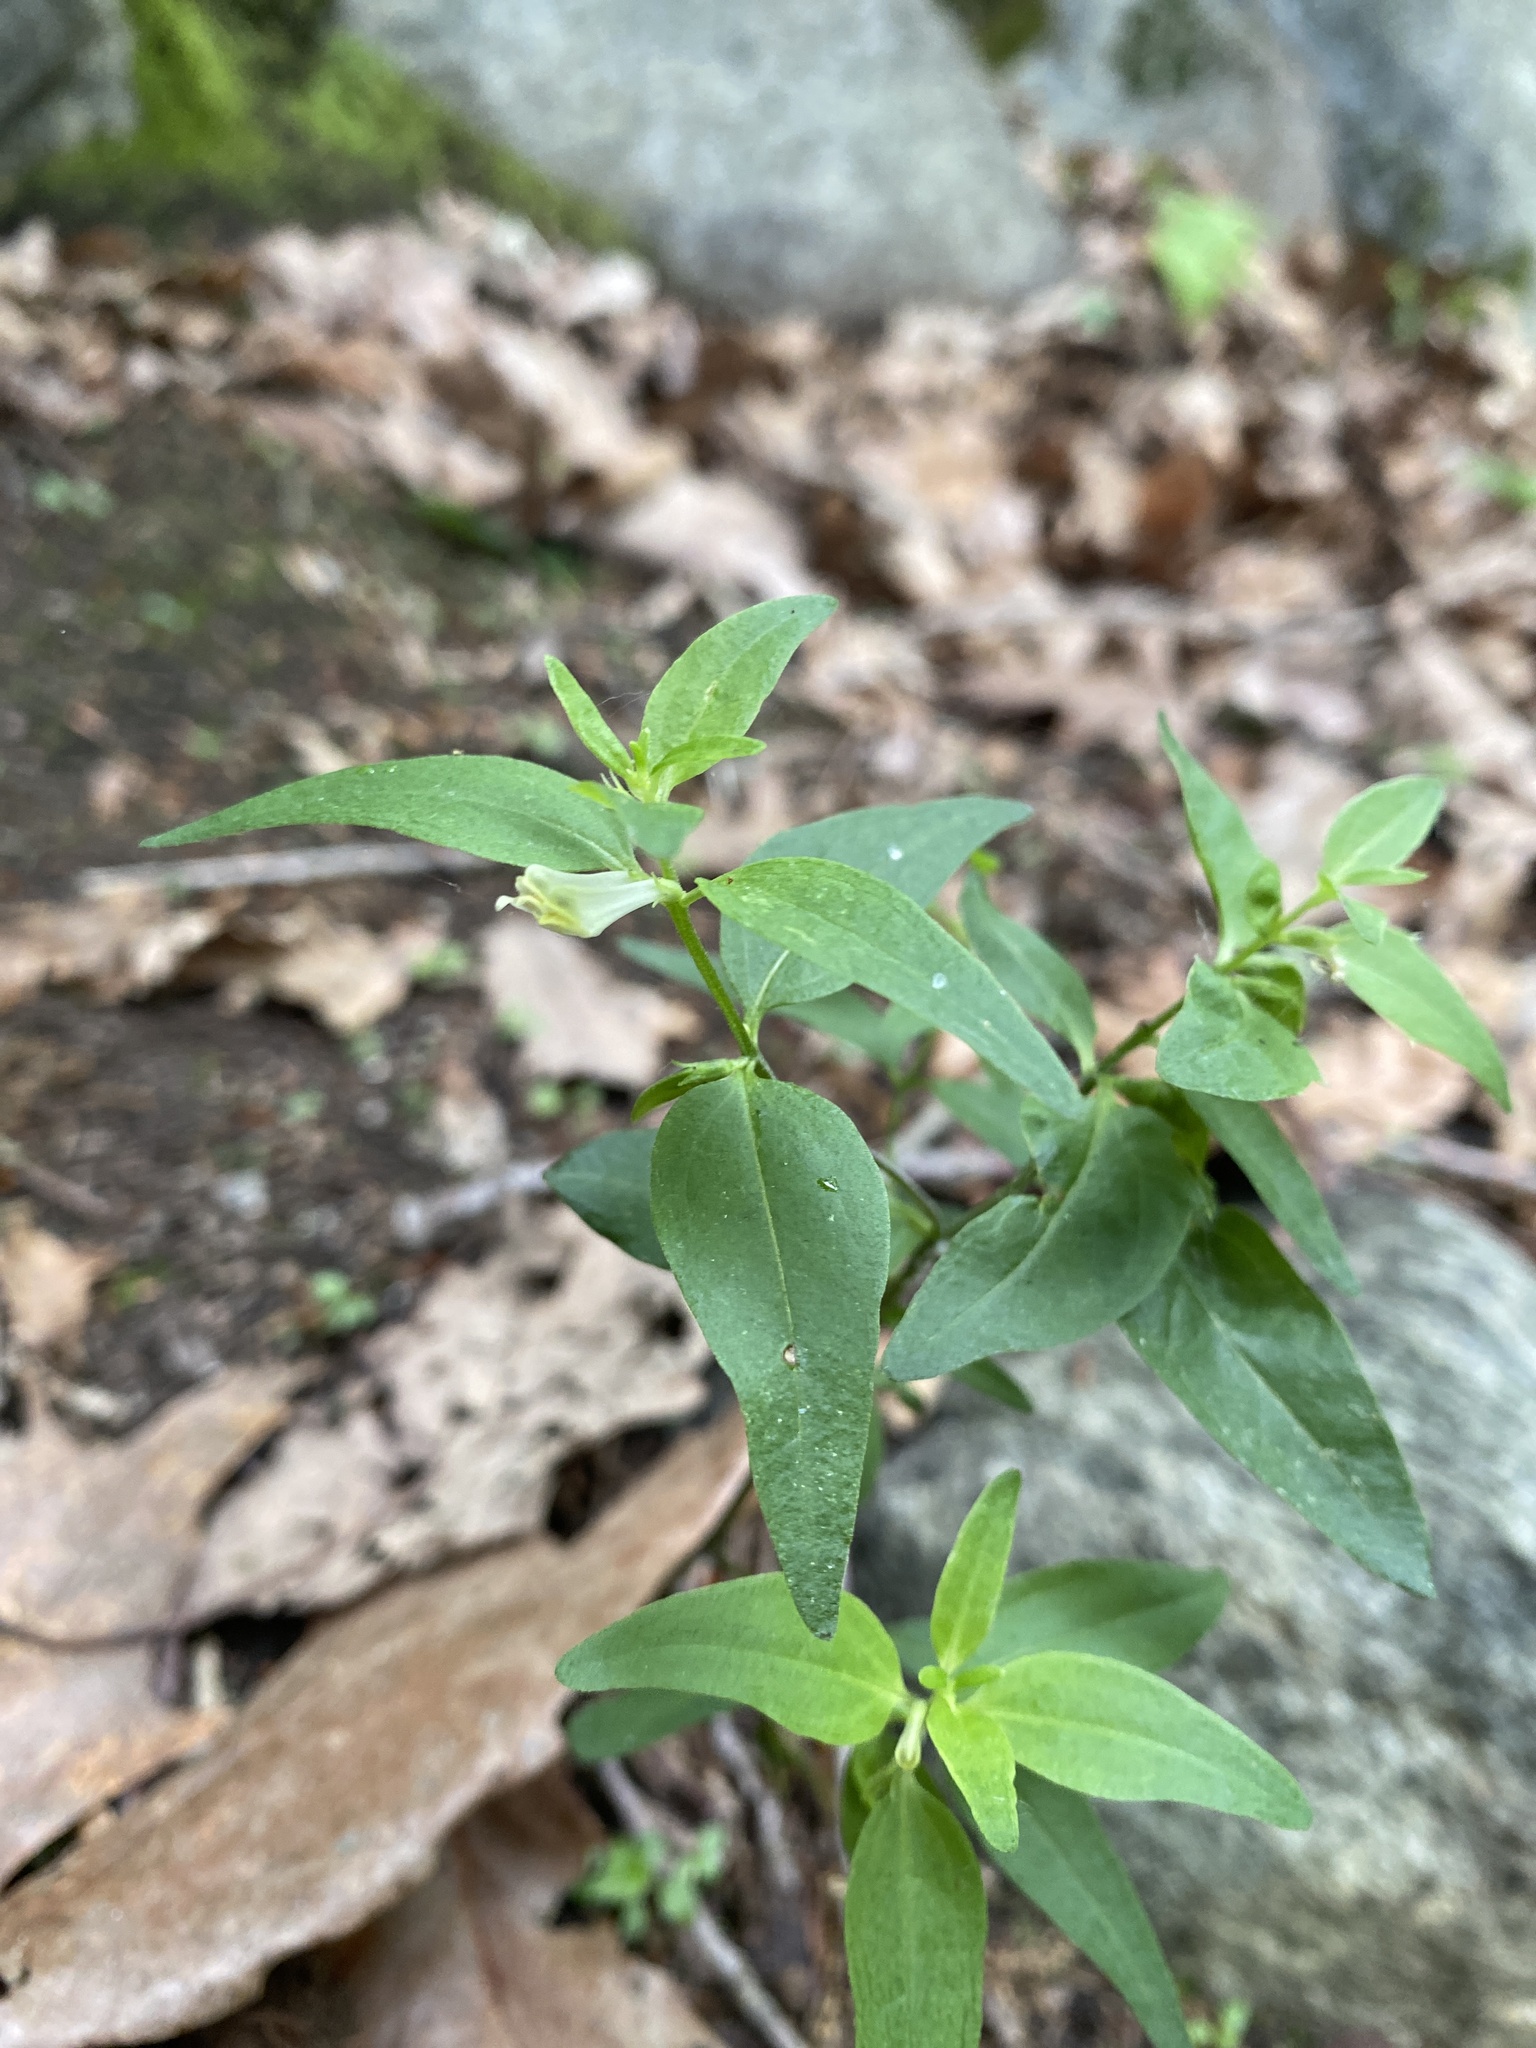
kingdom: Plantae
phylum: Tracheophyta
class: Magnoliopsida
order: Lamiales
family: Orobanchaceae
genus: Melampyrum
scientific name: Melampyrum lineare
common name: American cow-wheat
